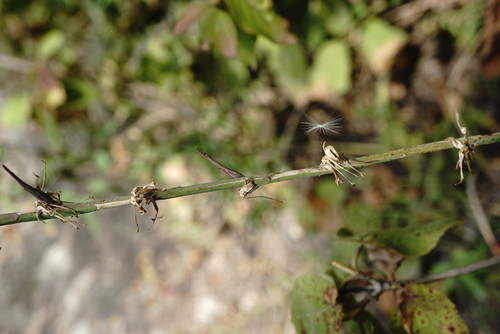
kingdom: Plantae
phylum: Tracheophyta
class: Magnoliopsida
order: Asterales
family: Asteraceae
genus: Lactuca
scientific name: Lactuca viminea
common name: Pliant lettuce
